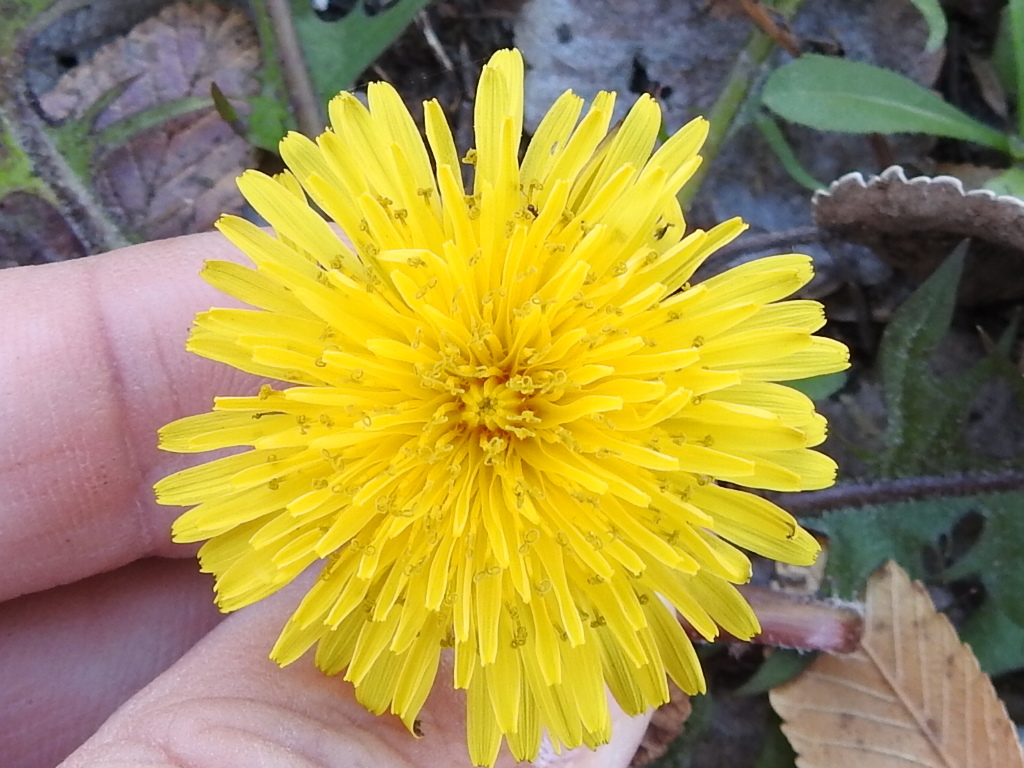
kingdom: Plantae
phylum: Tracheophyta
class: Magnoliopsida
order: Asterales
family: Asteraceae
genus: Taraxacum
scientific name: Taraxacum officinale
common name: Common dandelion
